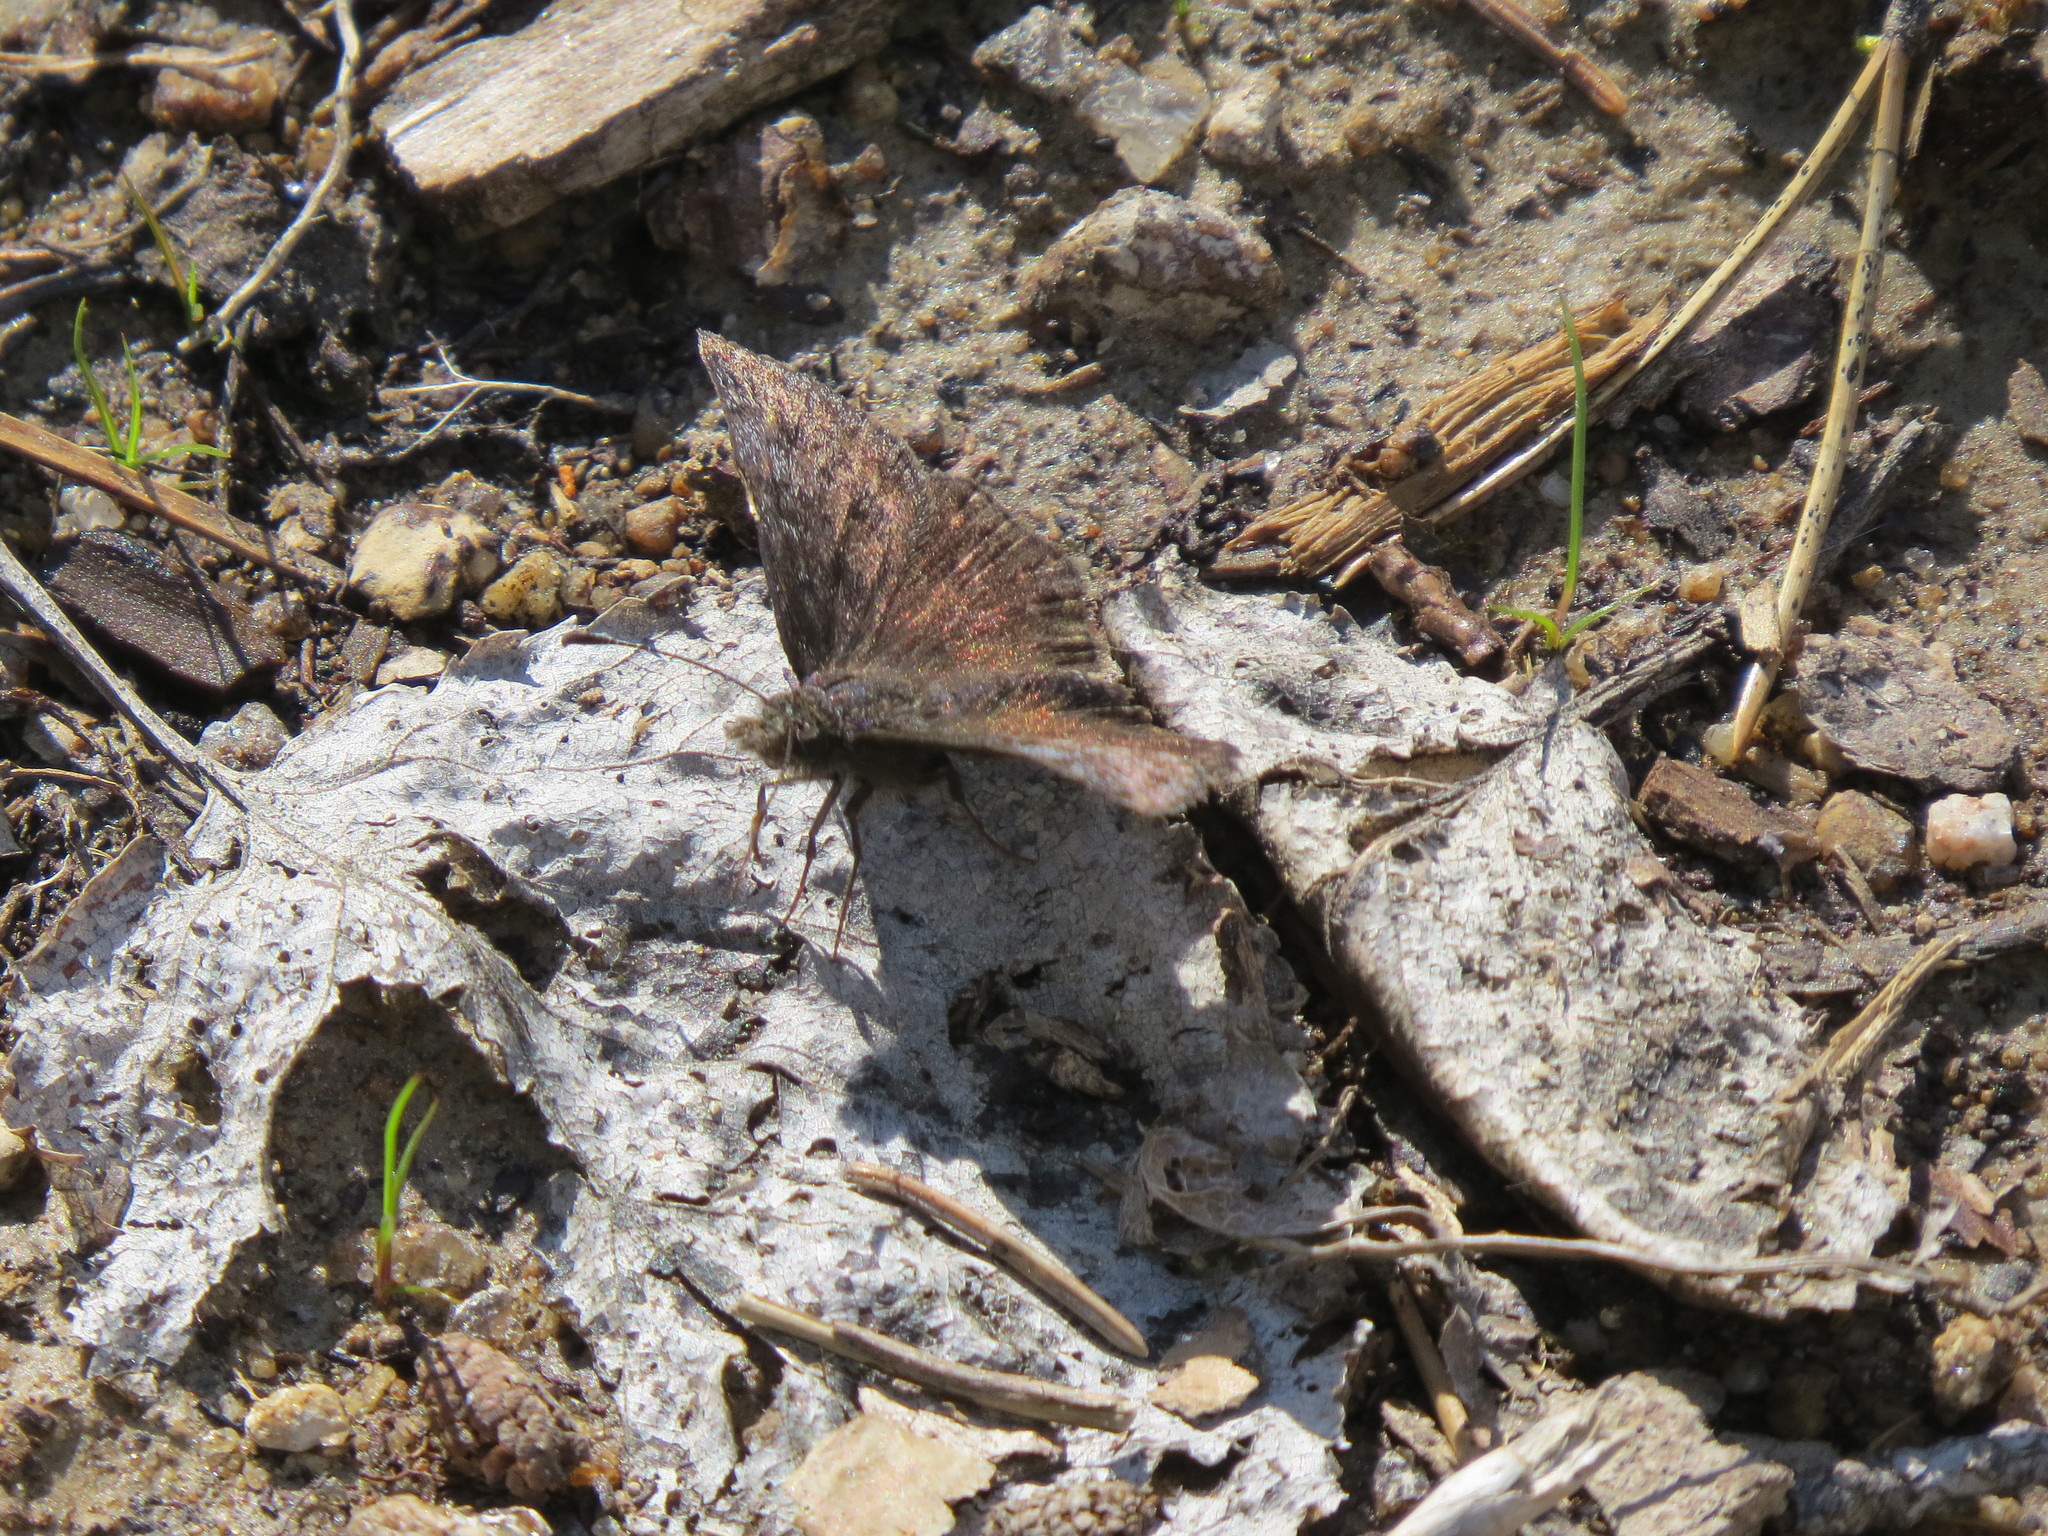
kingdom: Animalia
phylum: Arthropoda
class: Insecta
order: Lepidoptera
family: Hesperiidae
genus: Erynnis
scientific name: Erynnis icelus
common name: Dreamy duskywing
